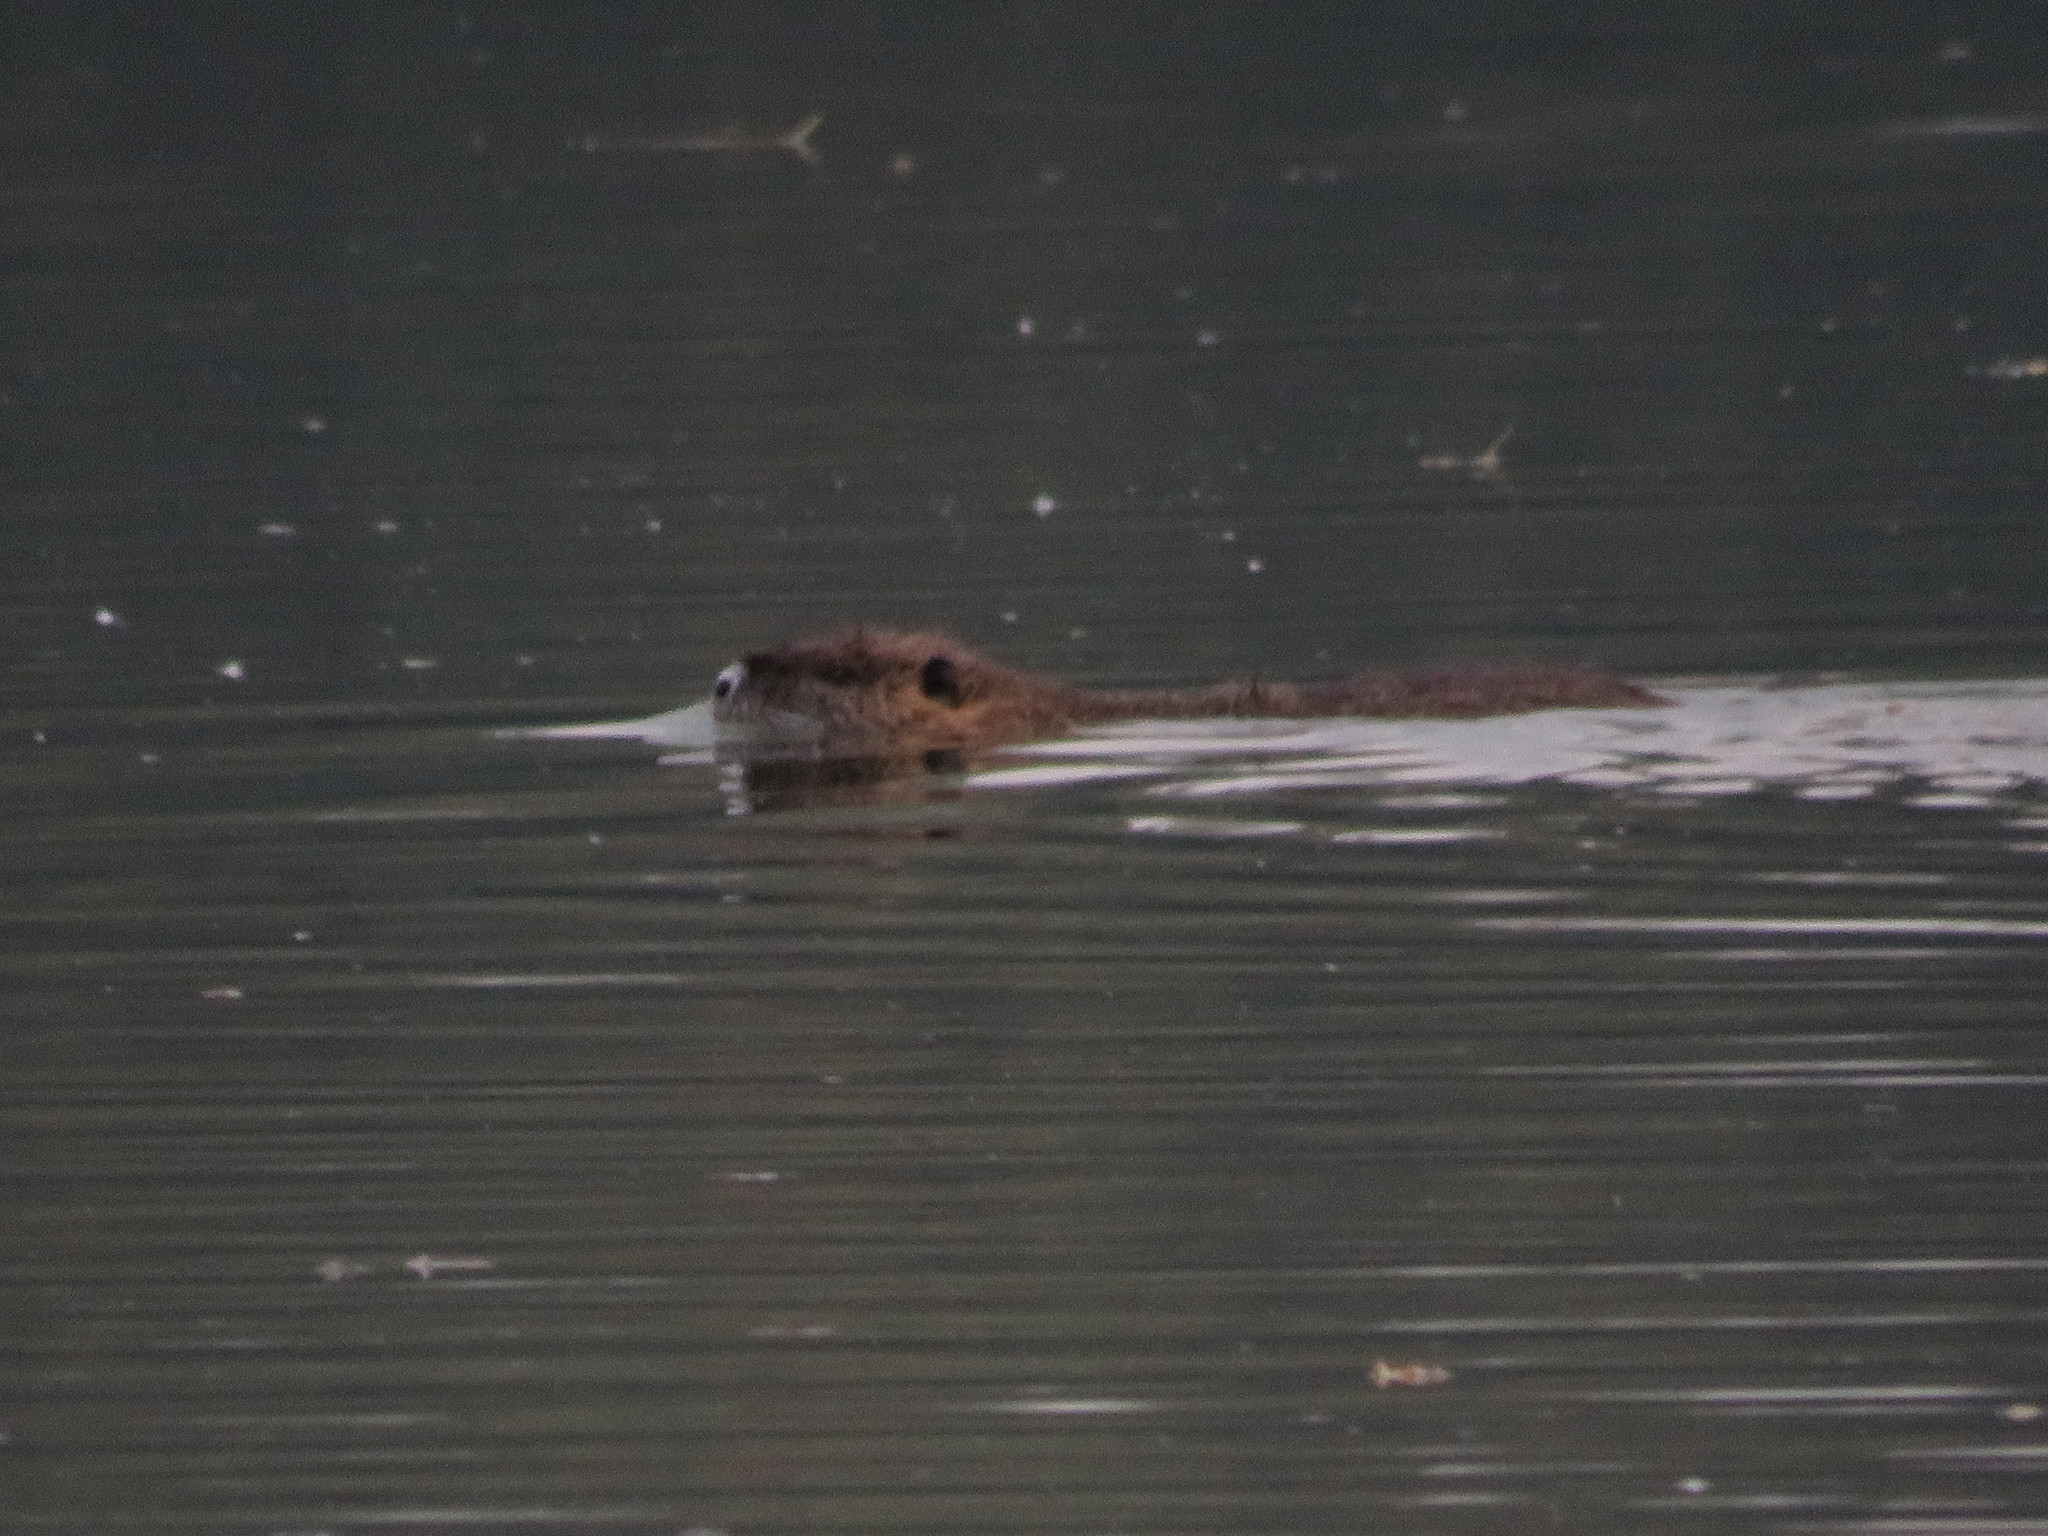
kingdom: Animalia
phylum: Chordata
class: Mammalia
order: Rodentia
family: Myocastoridae
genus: Myocastor
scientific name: Myocastor coypus
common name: Coypu
